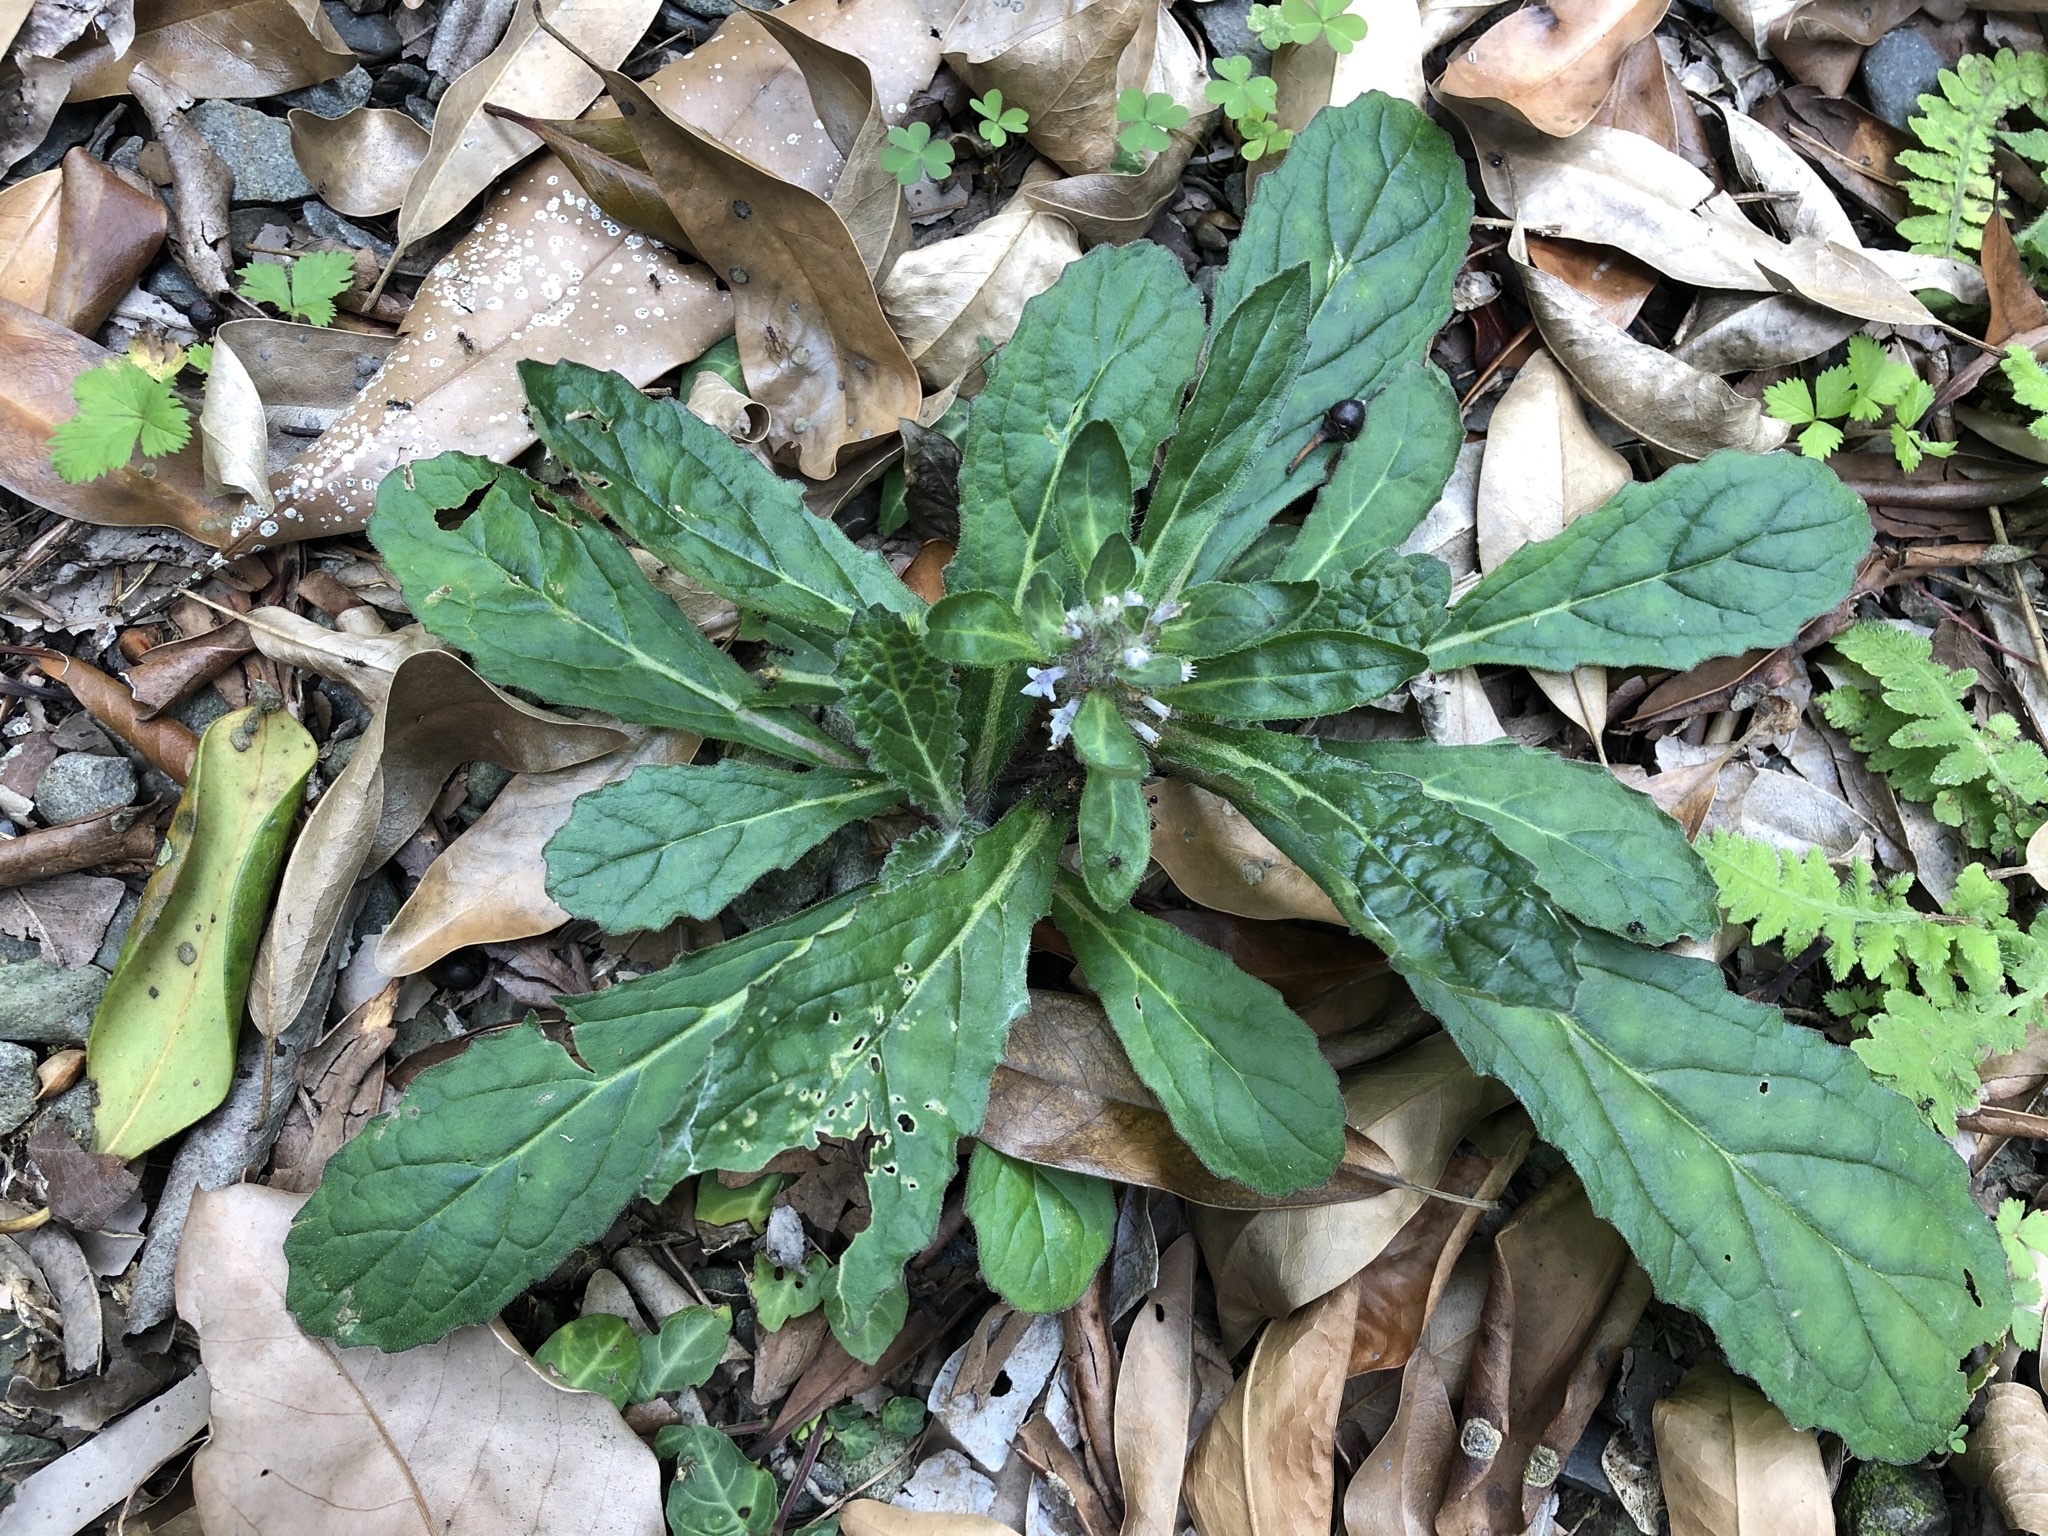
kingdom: Plantae
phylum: Tracheophyta
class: Magnoliopsida
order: Lamiales
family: Lamiaceae
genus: Ajuga
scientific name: Ajuga taiwanensis
